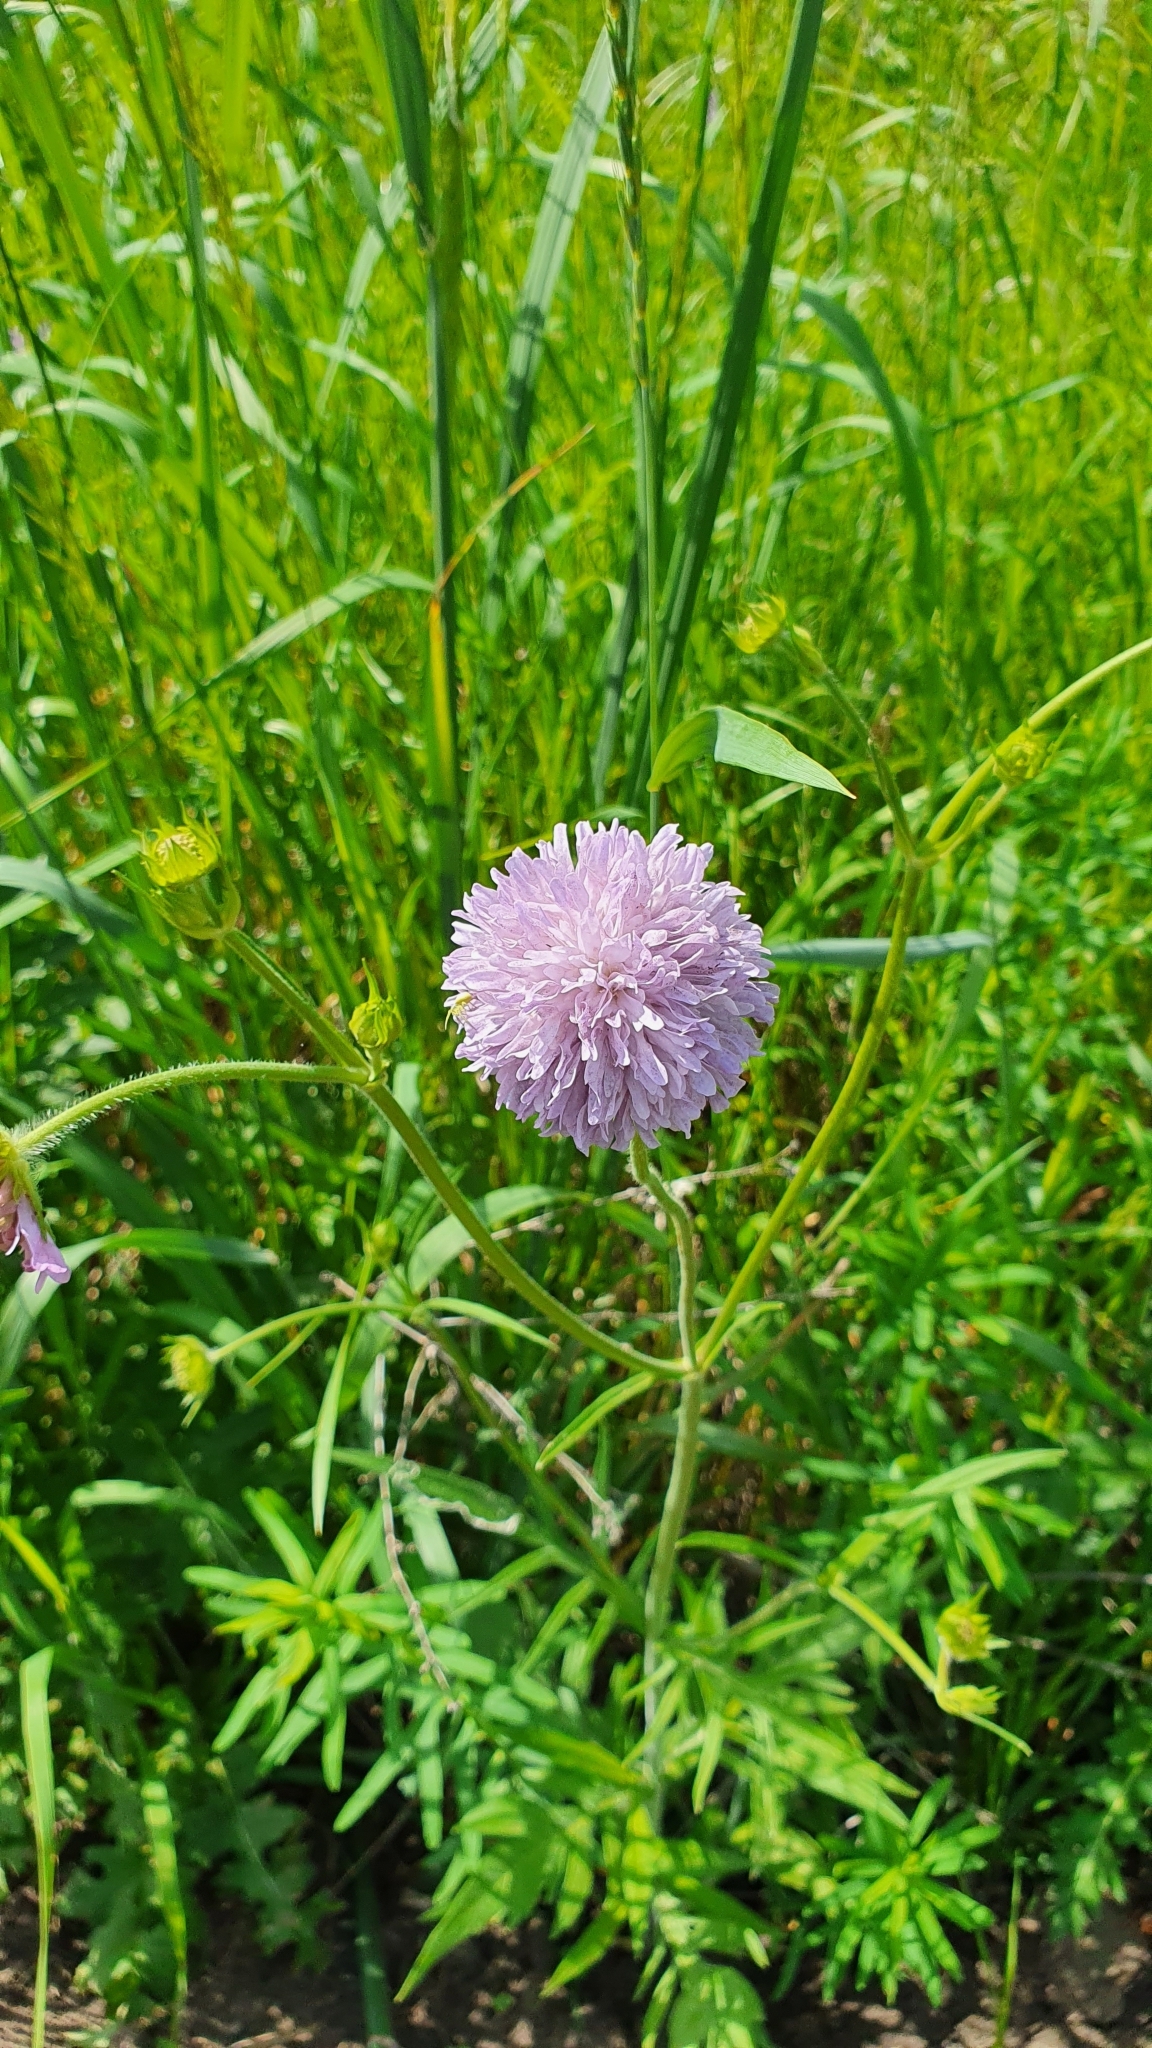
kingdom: Plantae
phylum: Tracheophyta
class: Magnoliopsida
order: Dipsacales
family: Caprifoliaceae
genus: Knautia
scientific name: Knautia arvensis
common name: Field scabiosa
